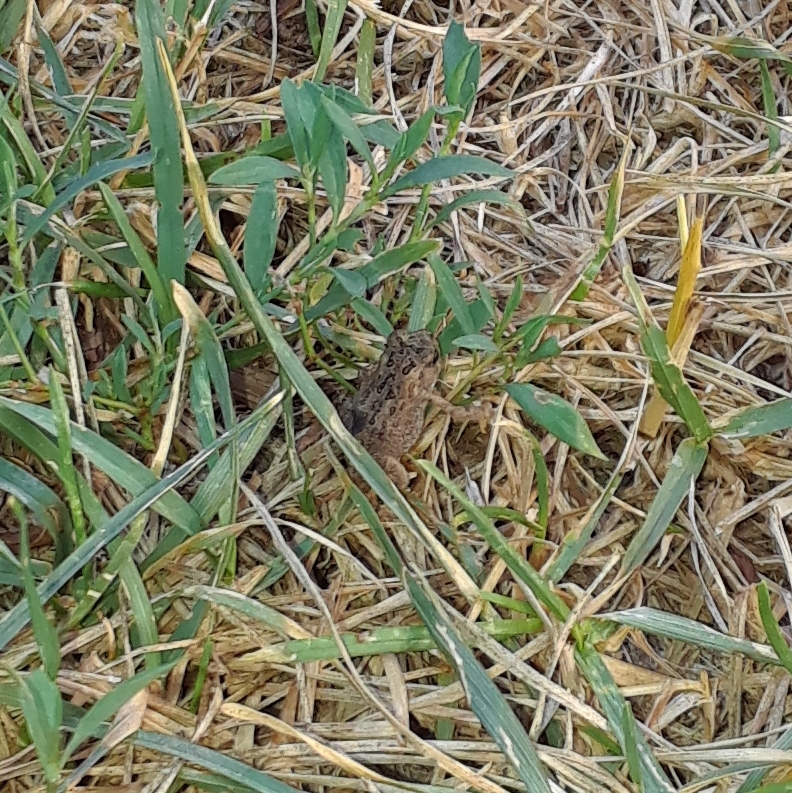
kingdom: Animalia
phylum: Chordata
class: Amphibia
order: Anura
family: Bufonidae
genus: Anaxyrus
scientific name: Anaxyrus americanus
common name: American toad
